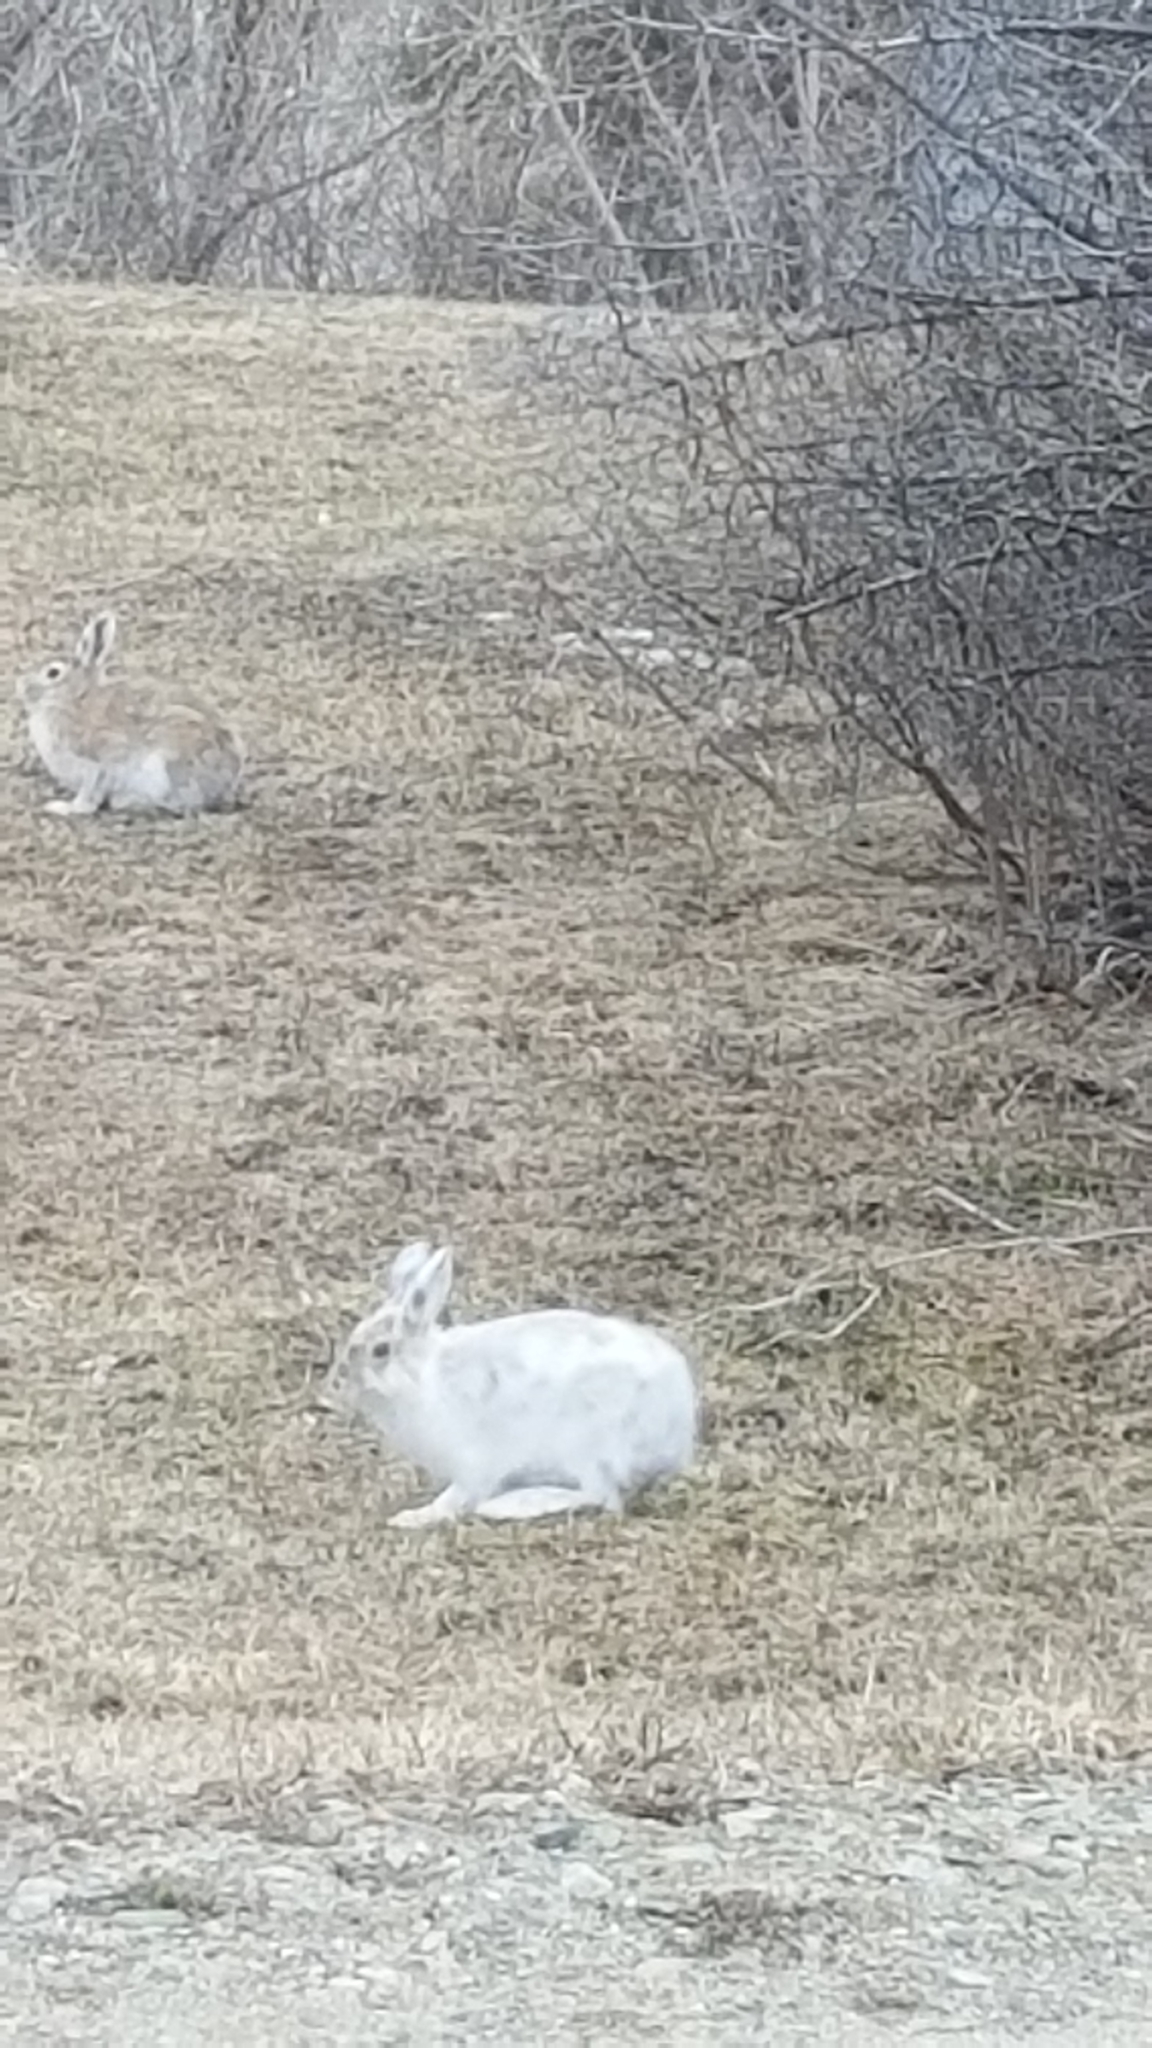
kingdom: Animalia
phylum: Chordata
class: Mammalia
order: Lagomorpha
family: Leporidae
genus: Lepus
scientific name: Lepus americanus
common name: Snowshoe hare
